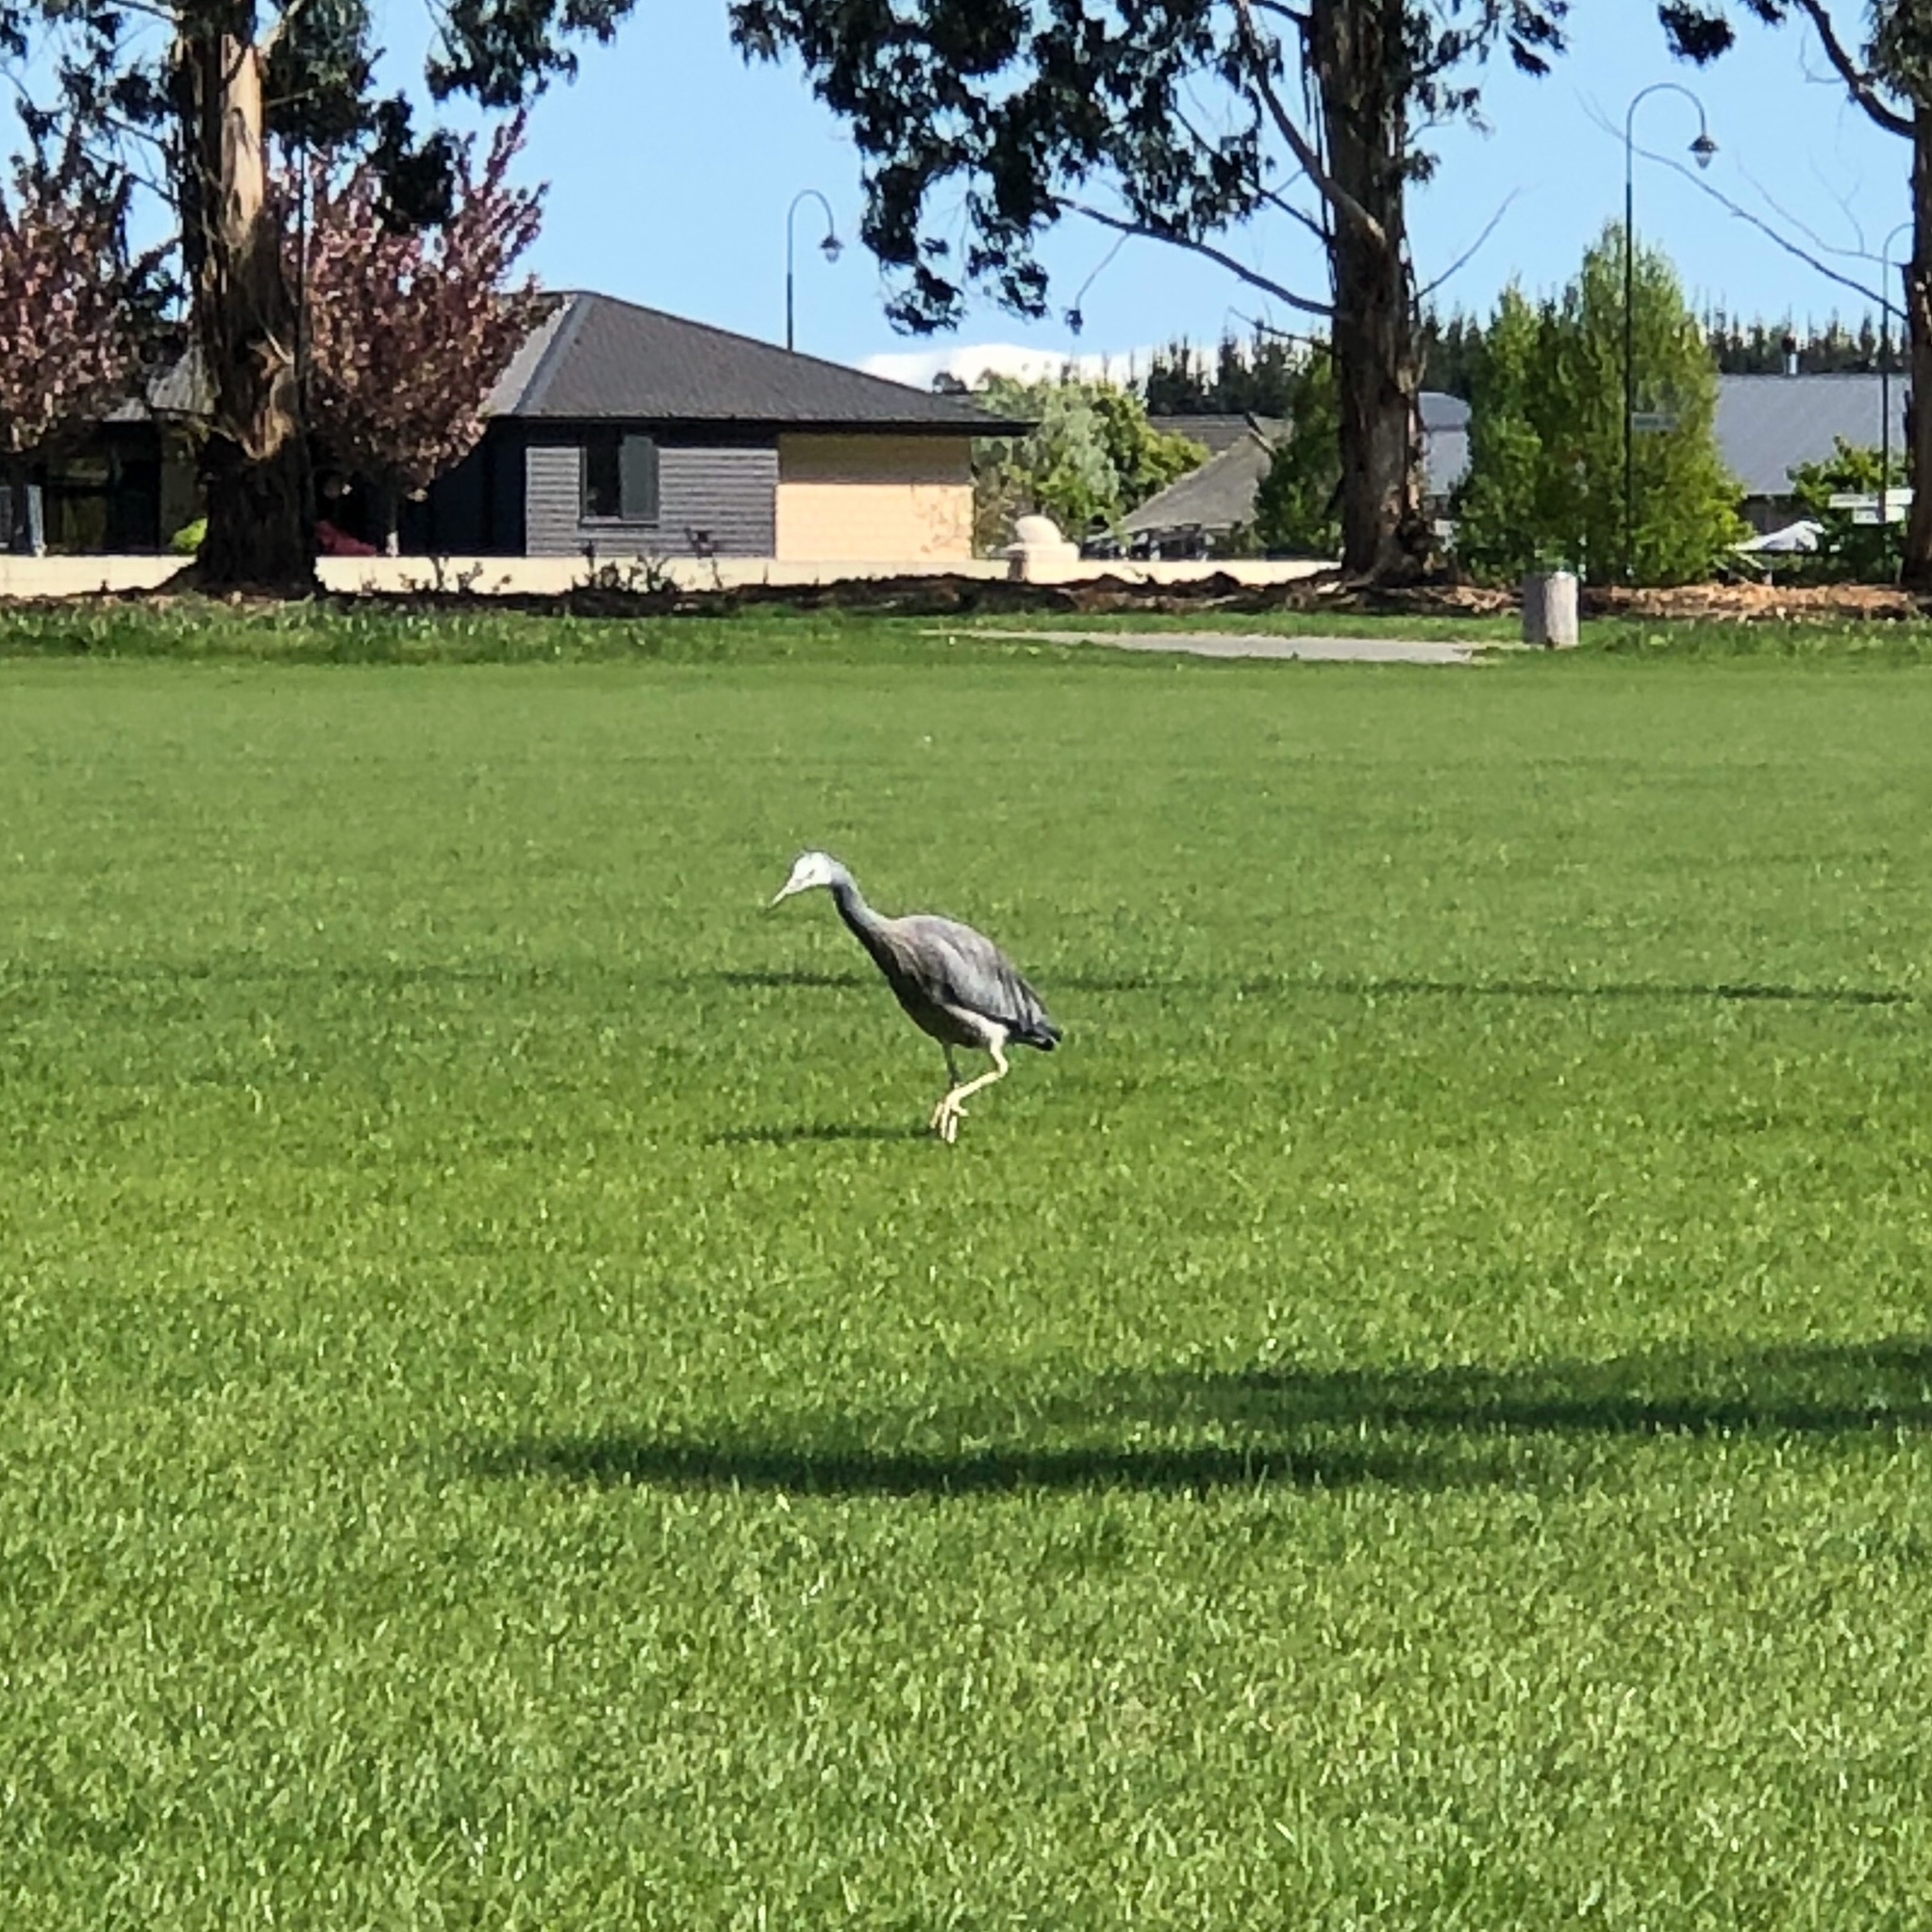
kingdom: Animalia
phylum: Chordata
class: Aves
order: Pelecaniformes
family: Ardeidae
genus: Egretta
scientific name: Egretta novaehollandiae
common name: White-faced heron
